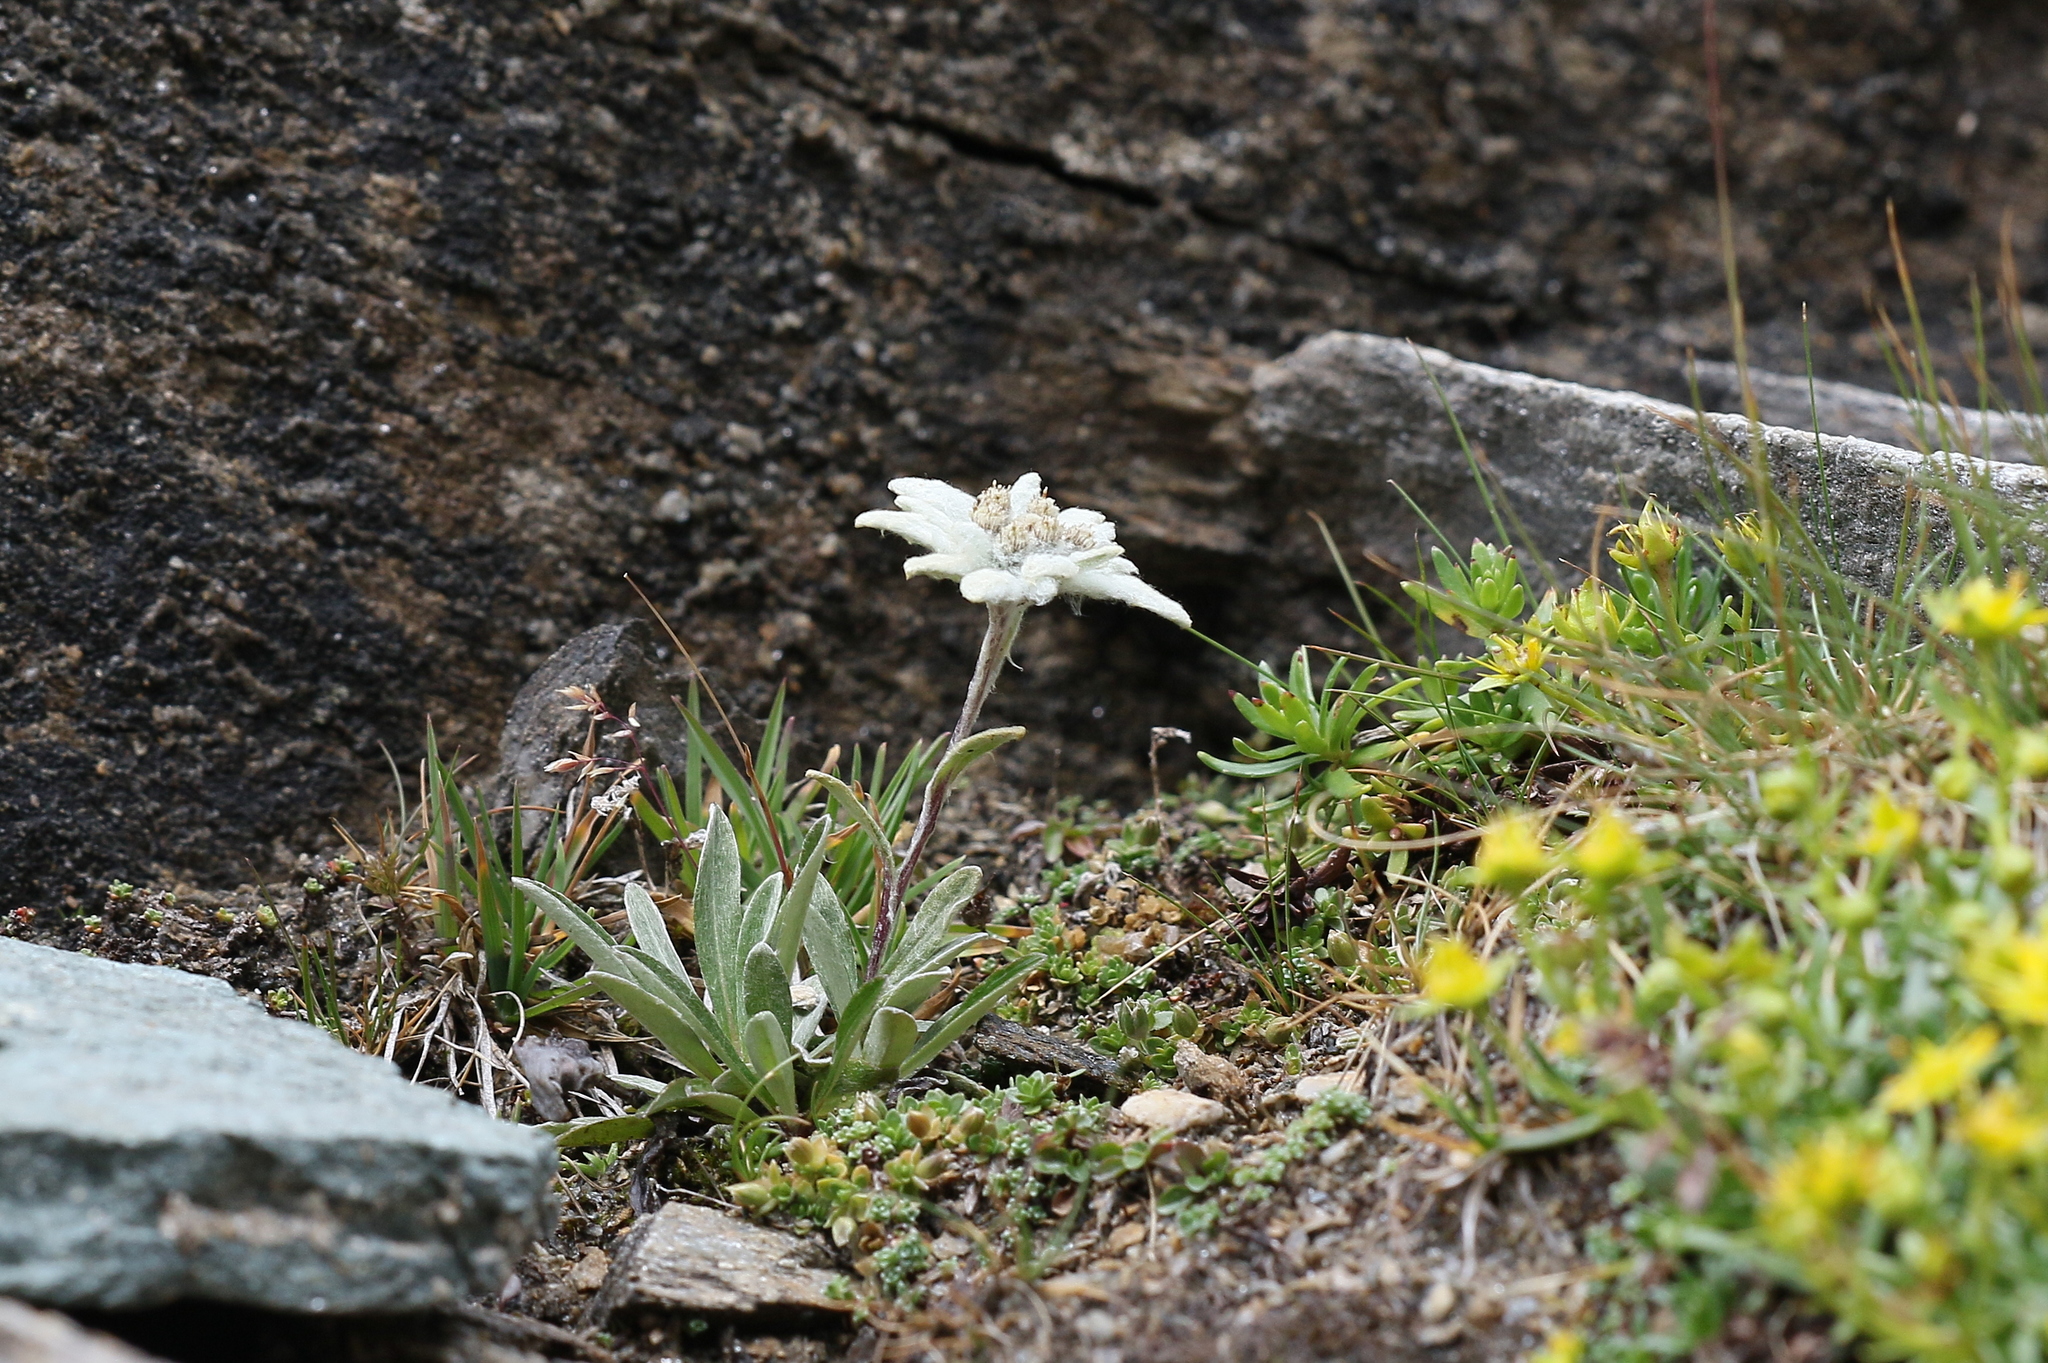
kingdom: Plantae
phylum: Tracheophyta
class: Magnoliopsida
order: Asterales
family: Asteraceae
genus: Leontopodium
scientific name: Leontopodium nivale
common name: Edelweiss
